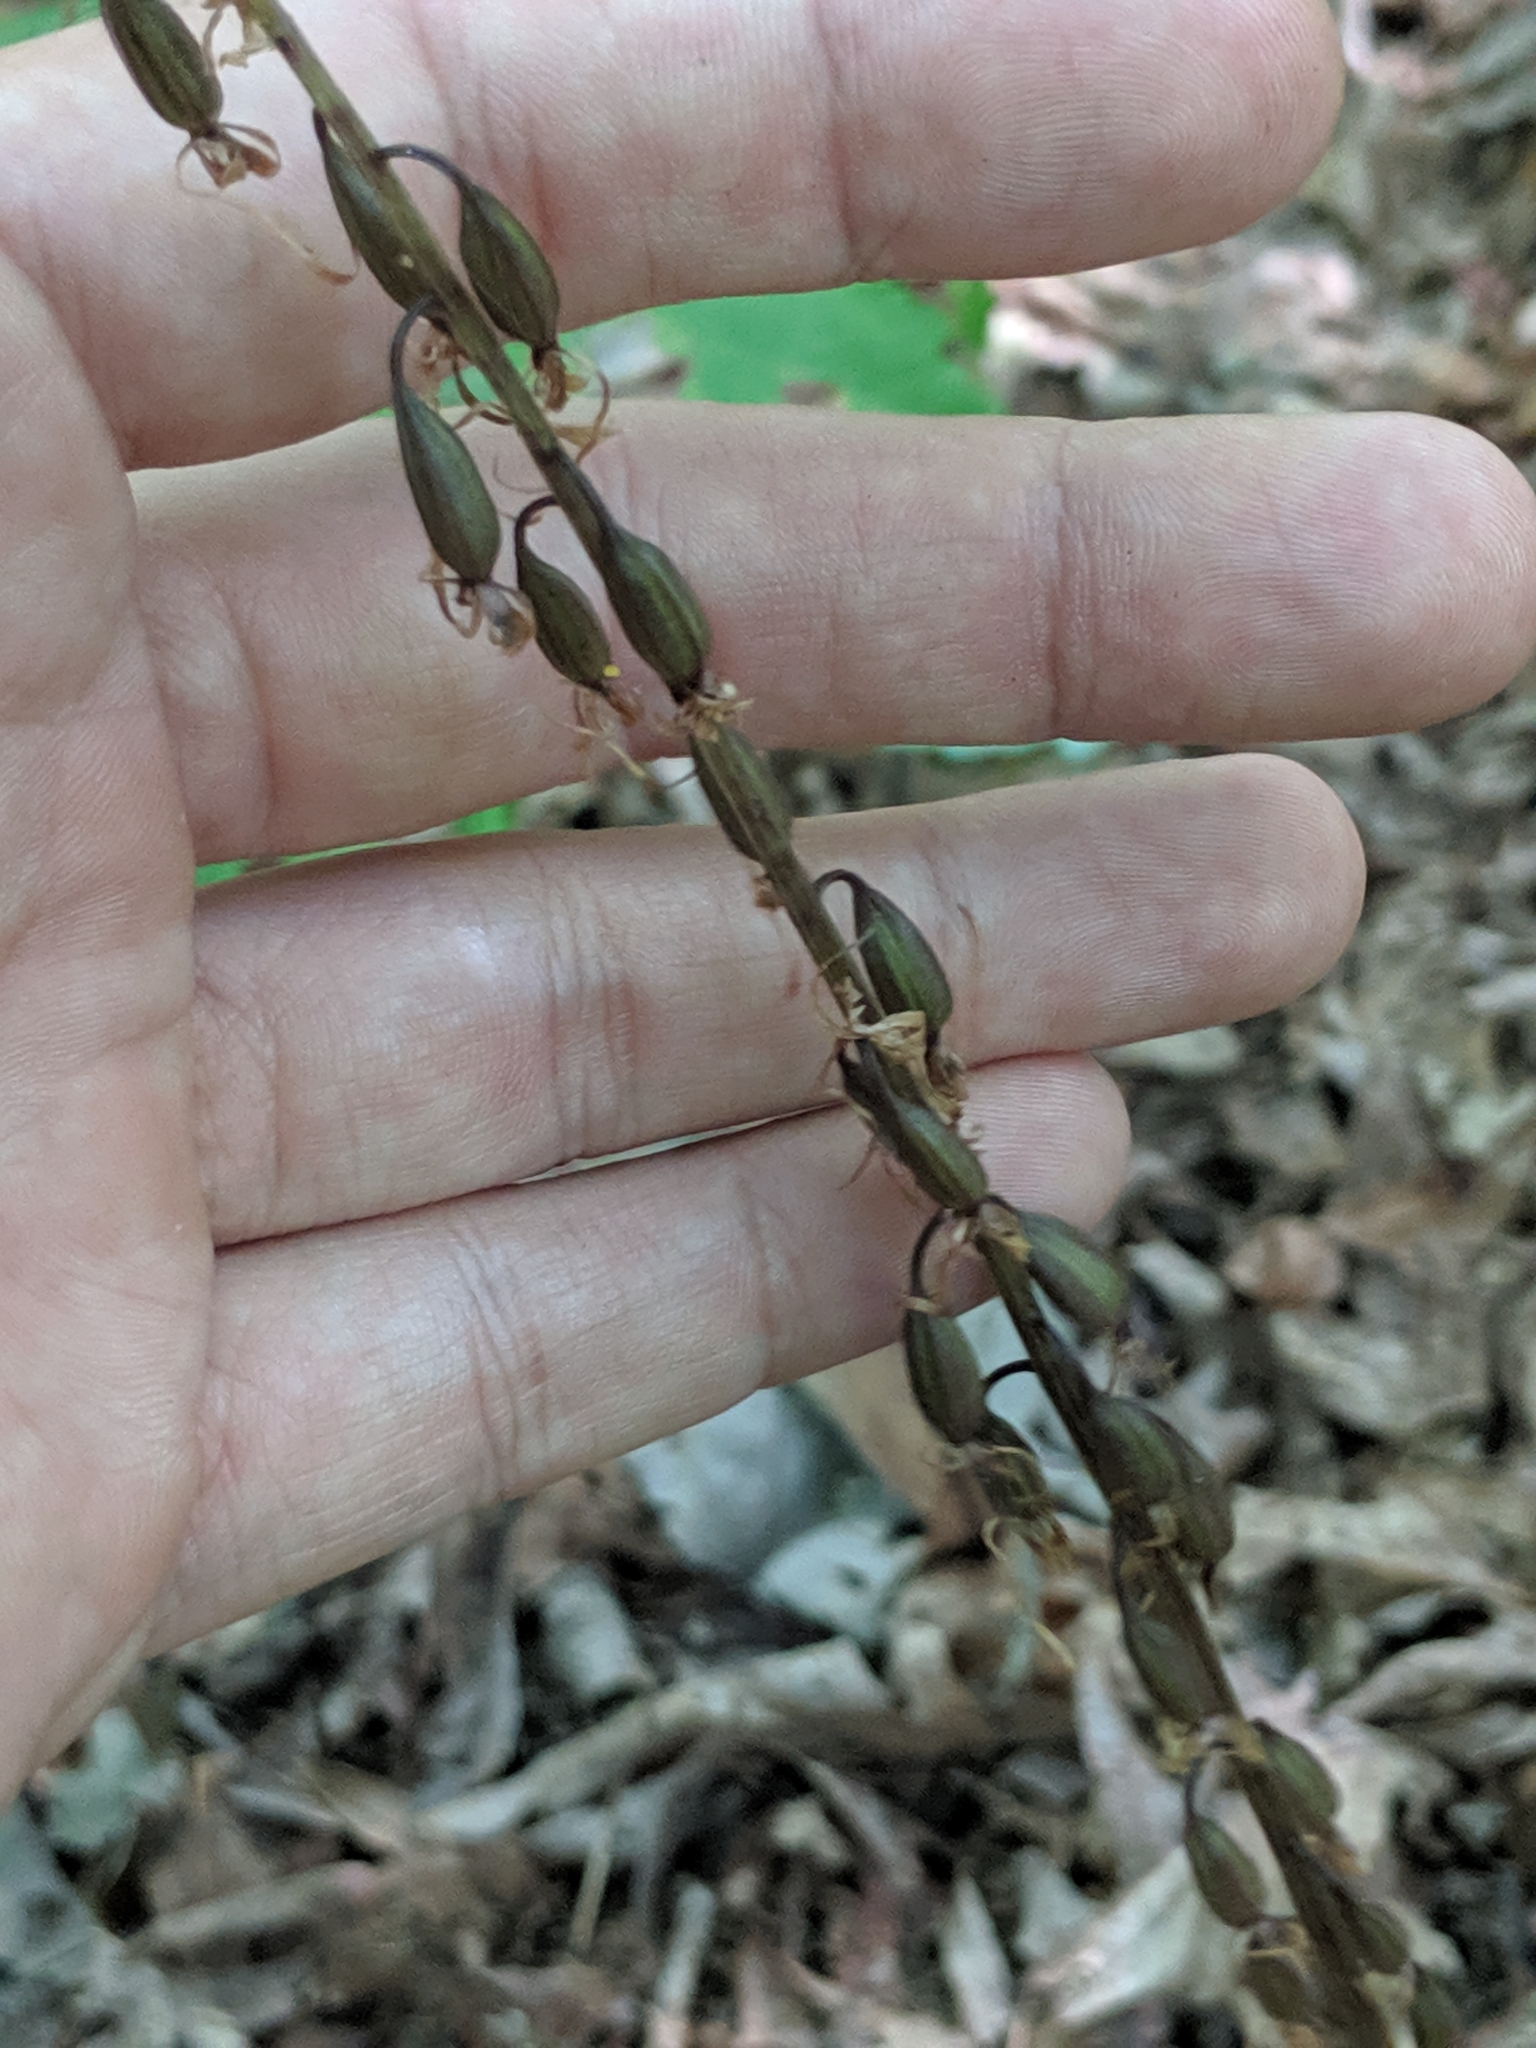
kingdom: Plantae
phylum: Tracheophyta
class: Liliopsida
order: Asparagales
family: Orchidaceae
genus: Tipularia
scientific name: Tipularia discolor
